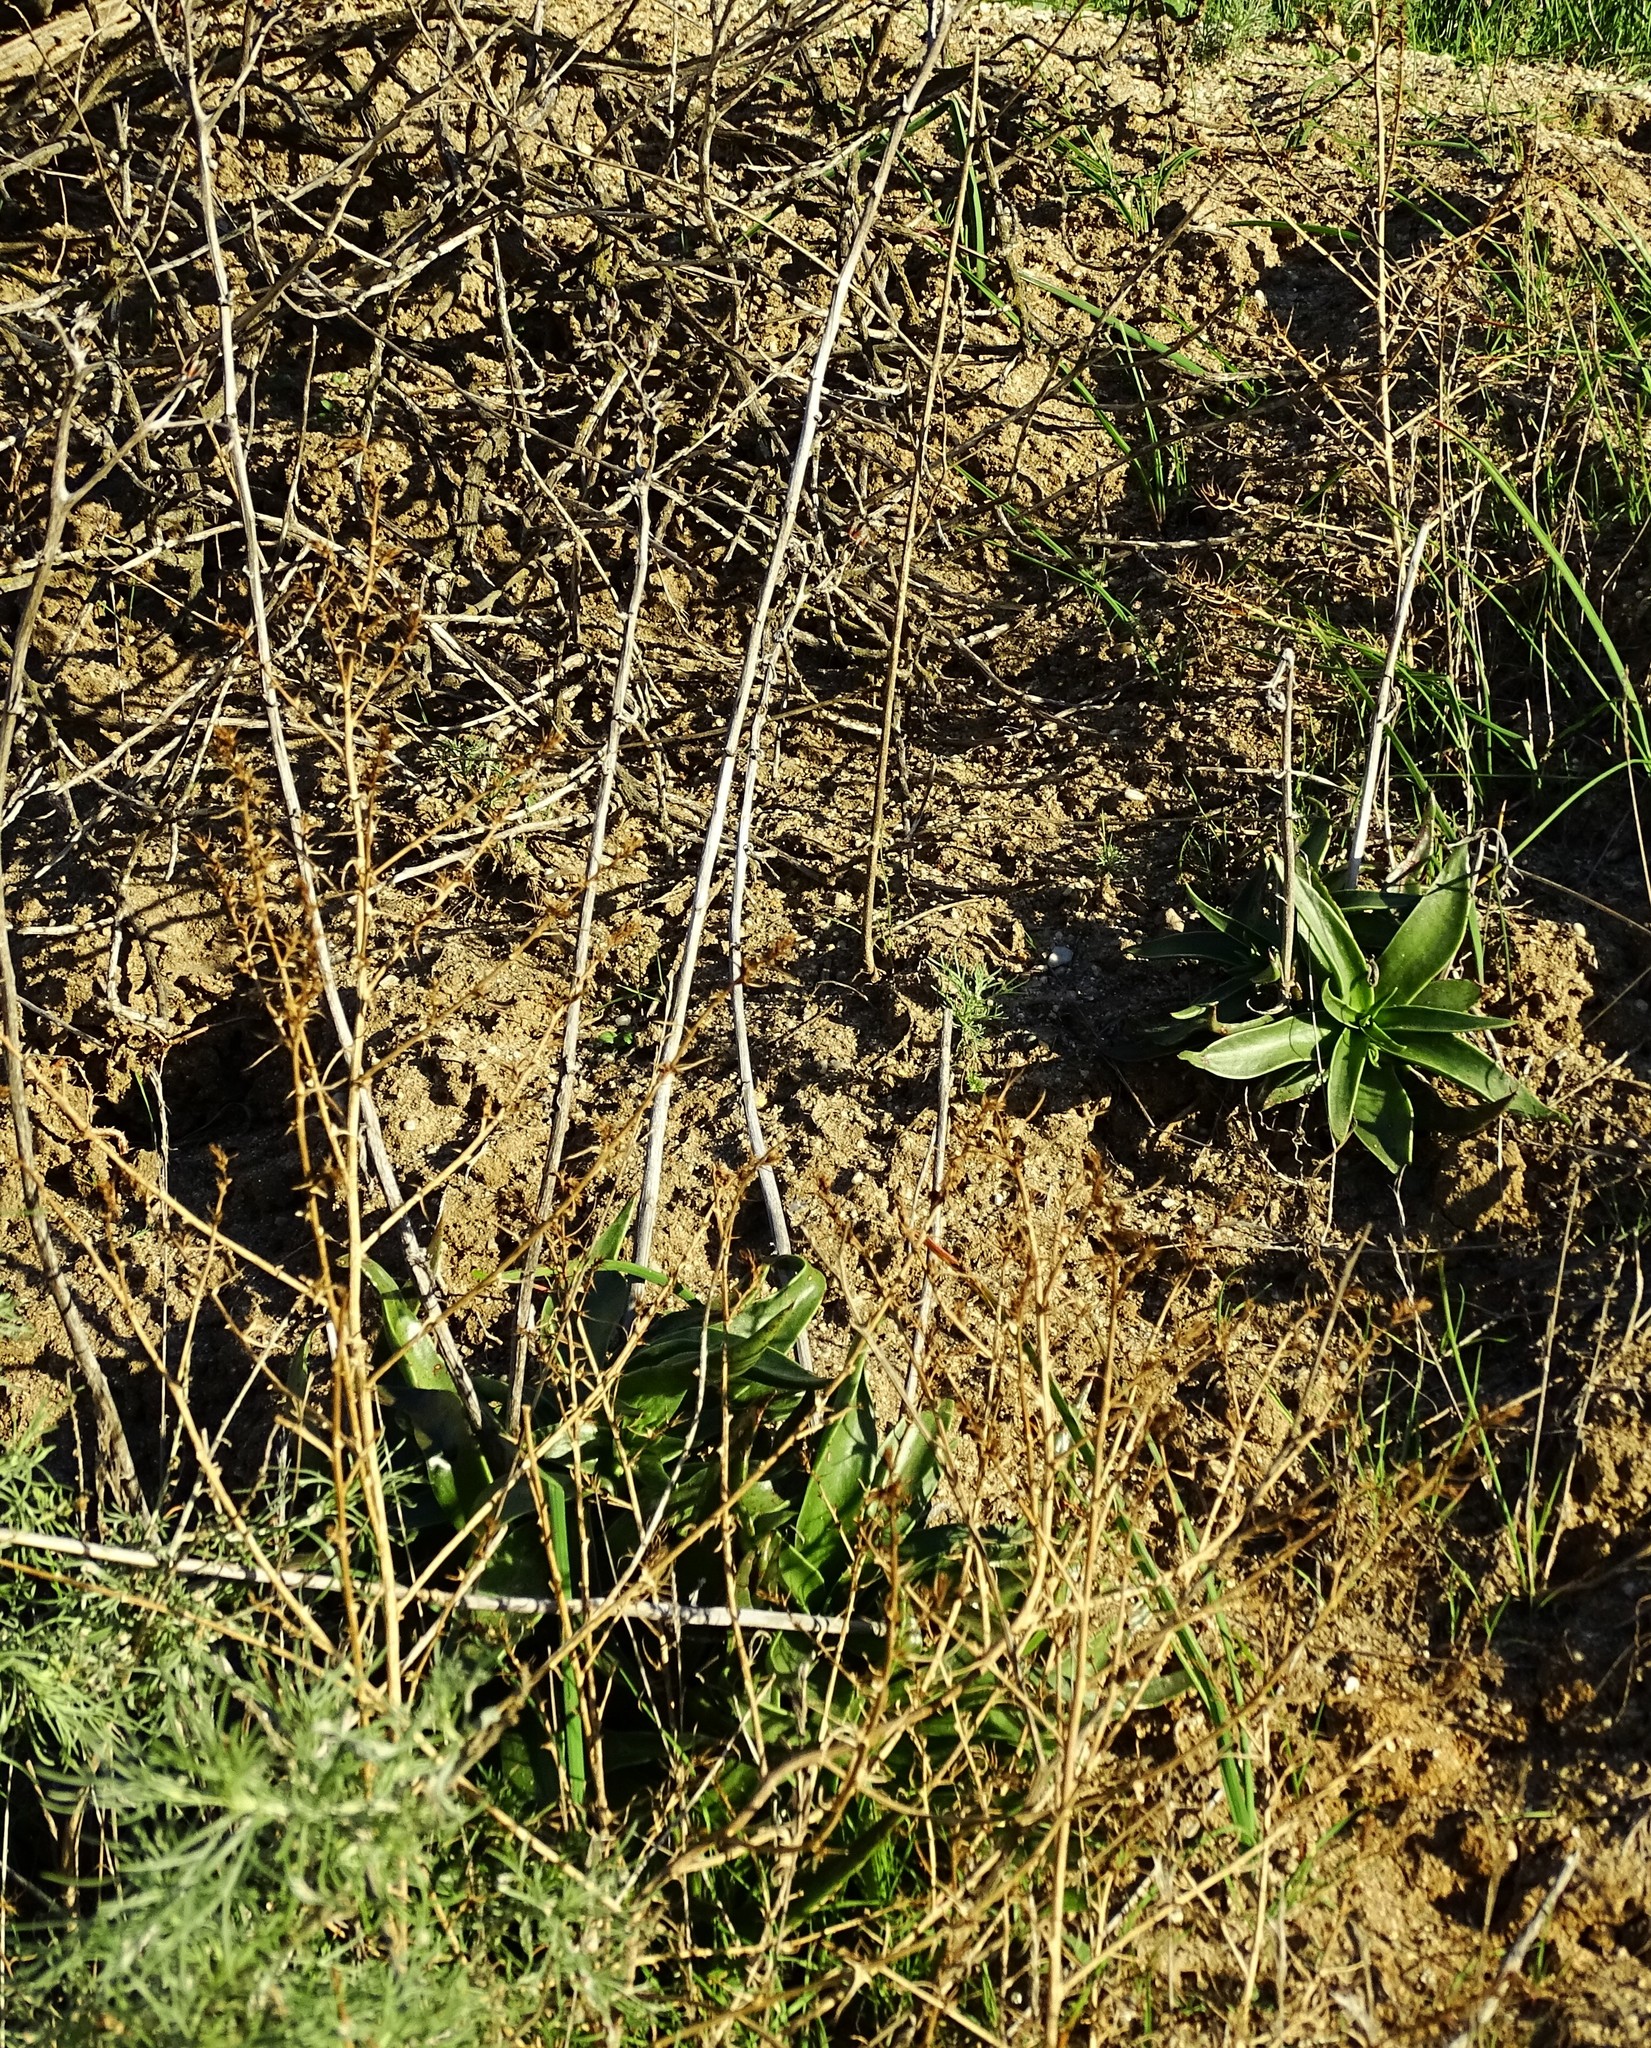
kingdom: Plantae
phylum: Tracheophyta
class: Magnoliopsida
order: Saxifragales
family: Crassulaceae
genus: Dudleya
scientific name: Dudleya lanceolata
